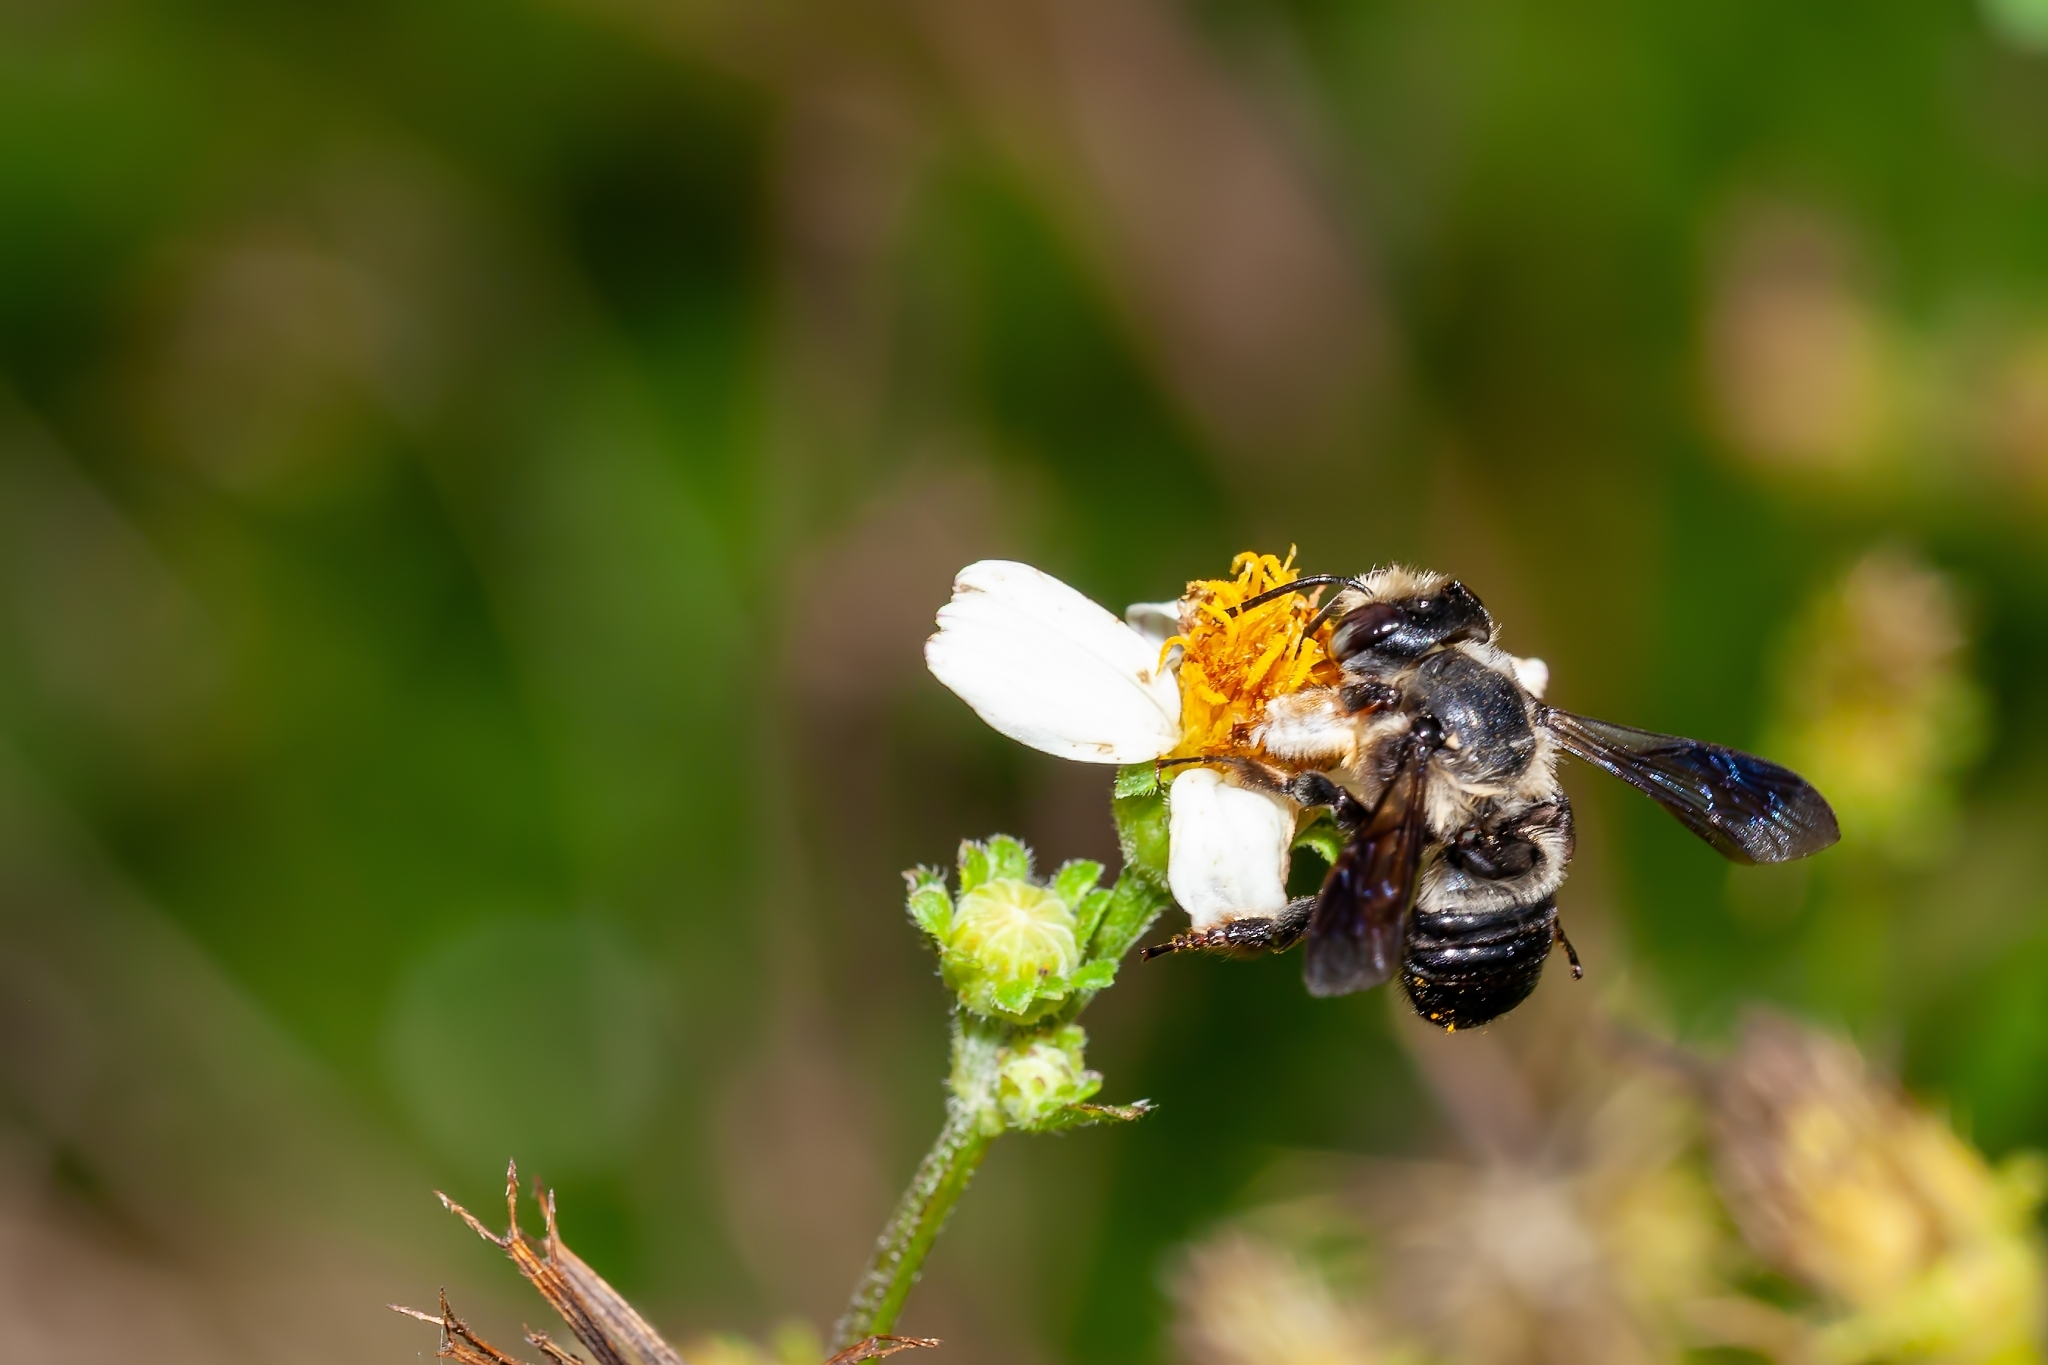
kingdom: Animalia
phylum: Arthropoda
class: Insecta
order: Hymenoptera
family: Megachilidae
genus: Megachile
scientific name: Megachile xylocopoides
